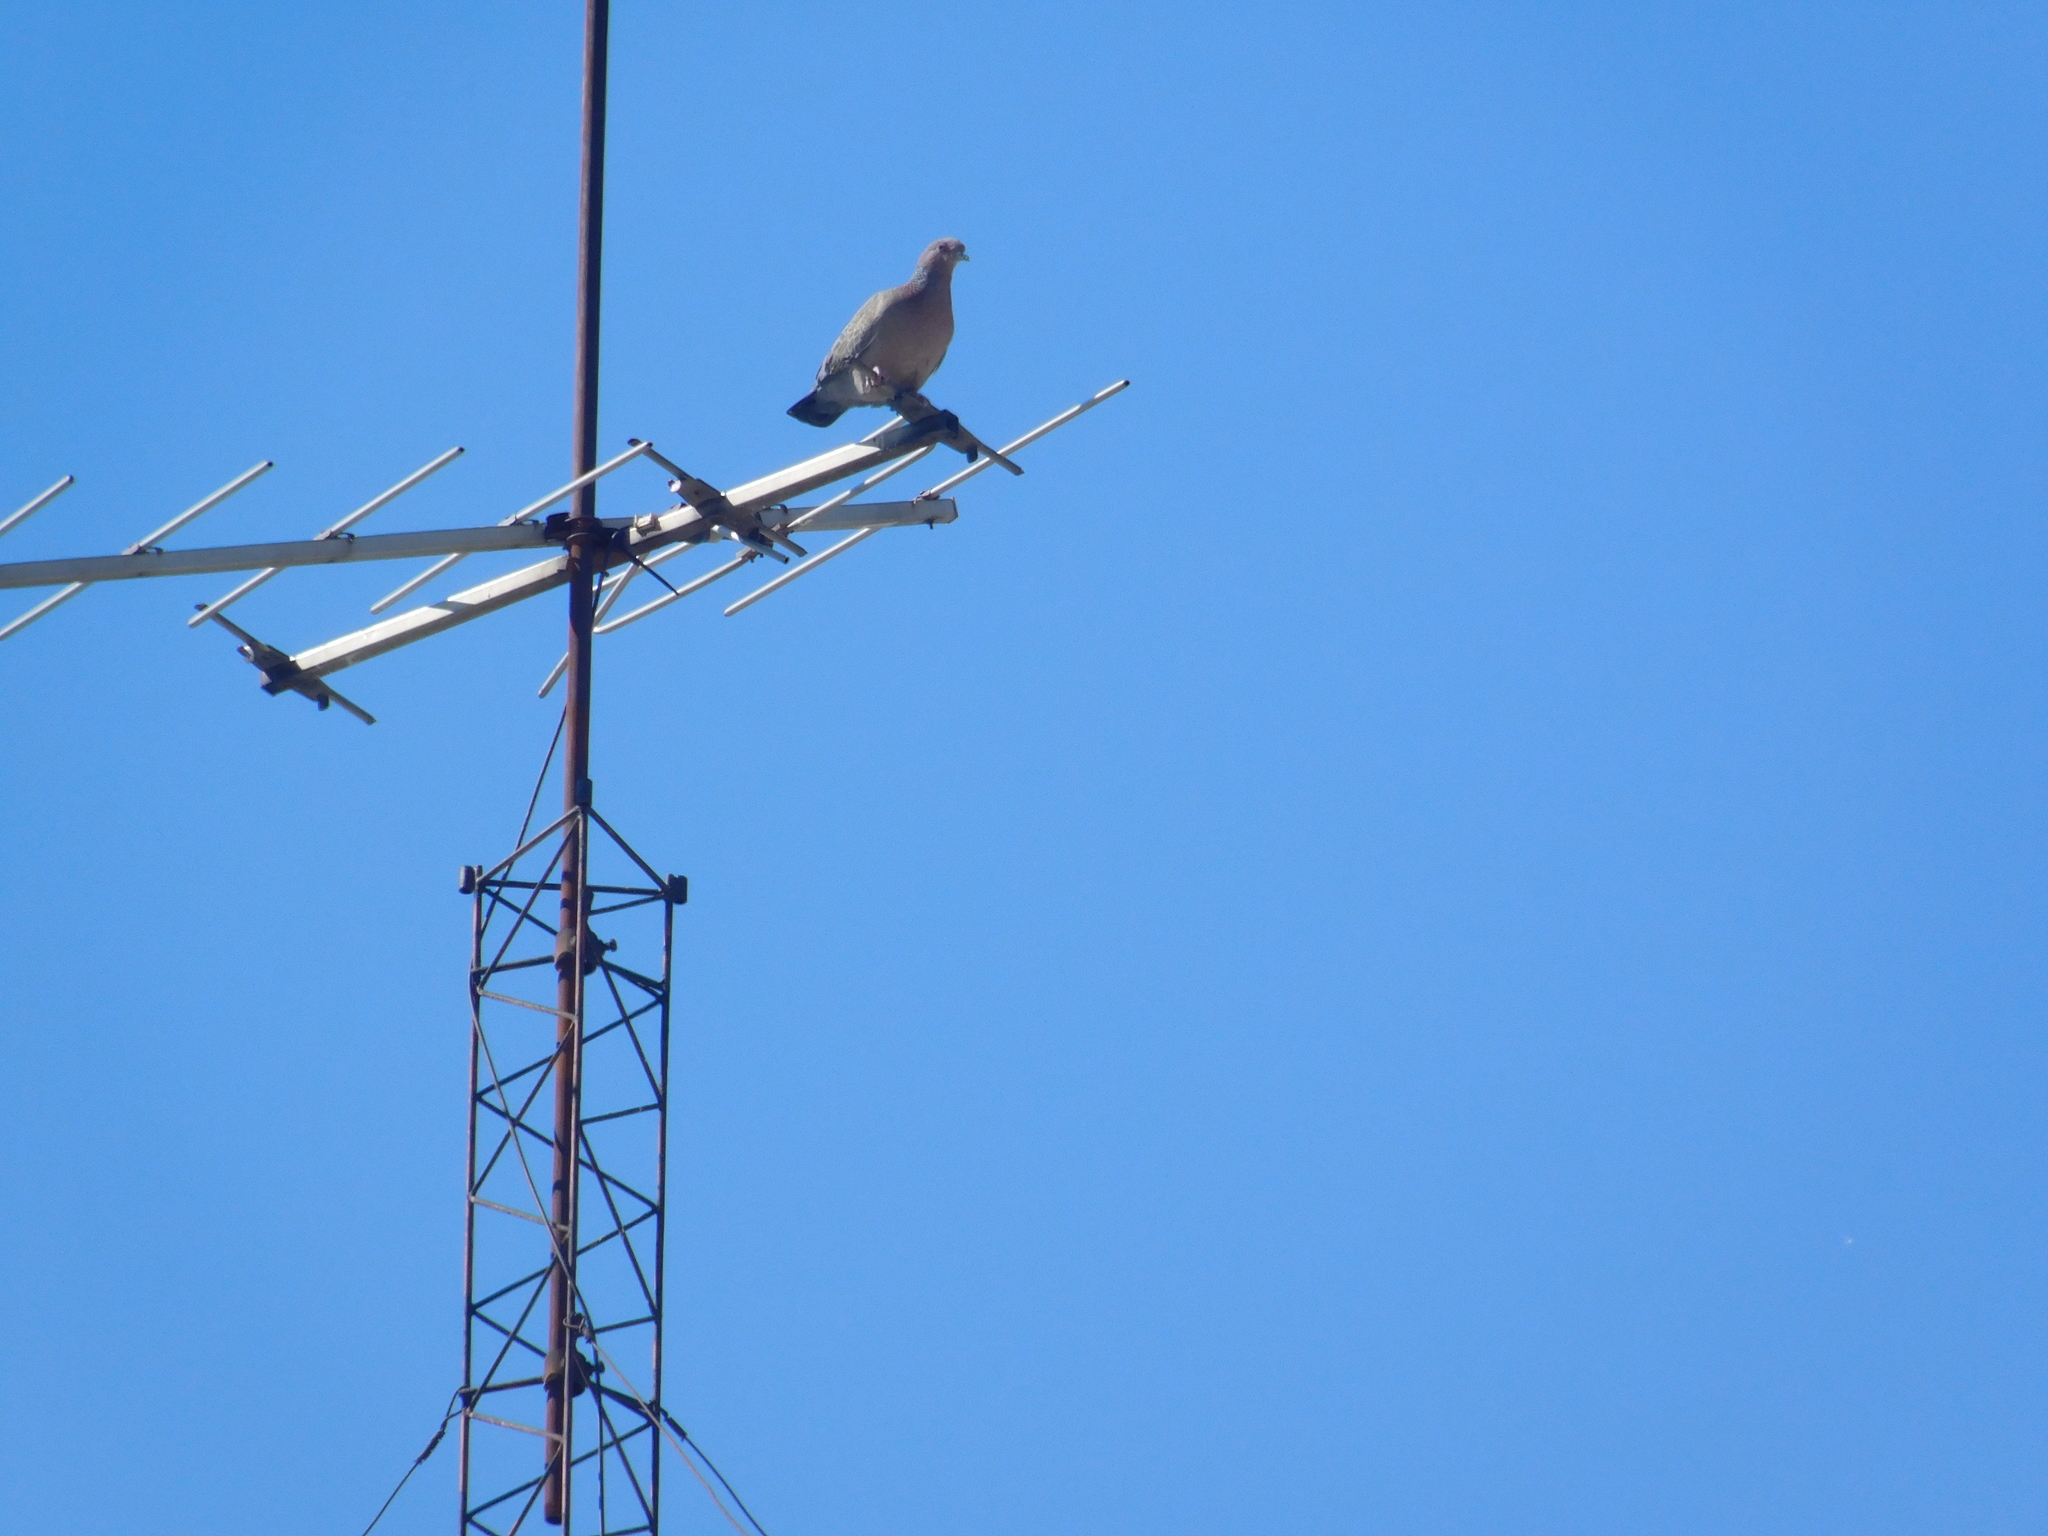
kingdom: Animalia
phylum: Chordata
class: Aves
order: Columbiformes
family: Columbidae
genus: Patagioenas
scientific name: Patagioenas picazuro
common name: Picazuro pigeon
